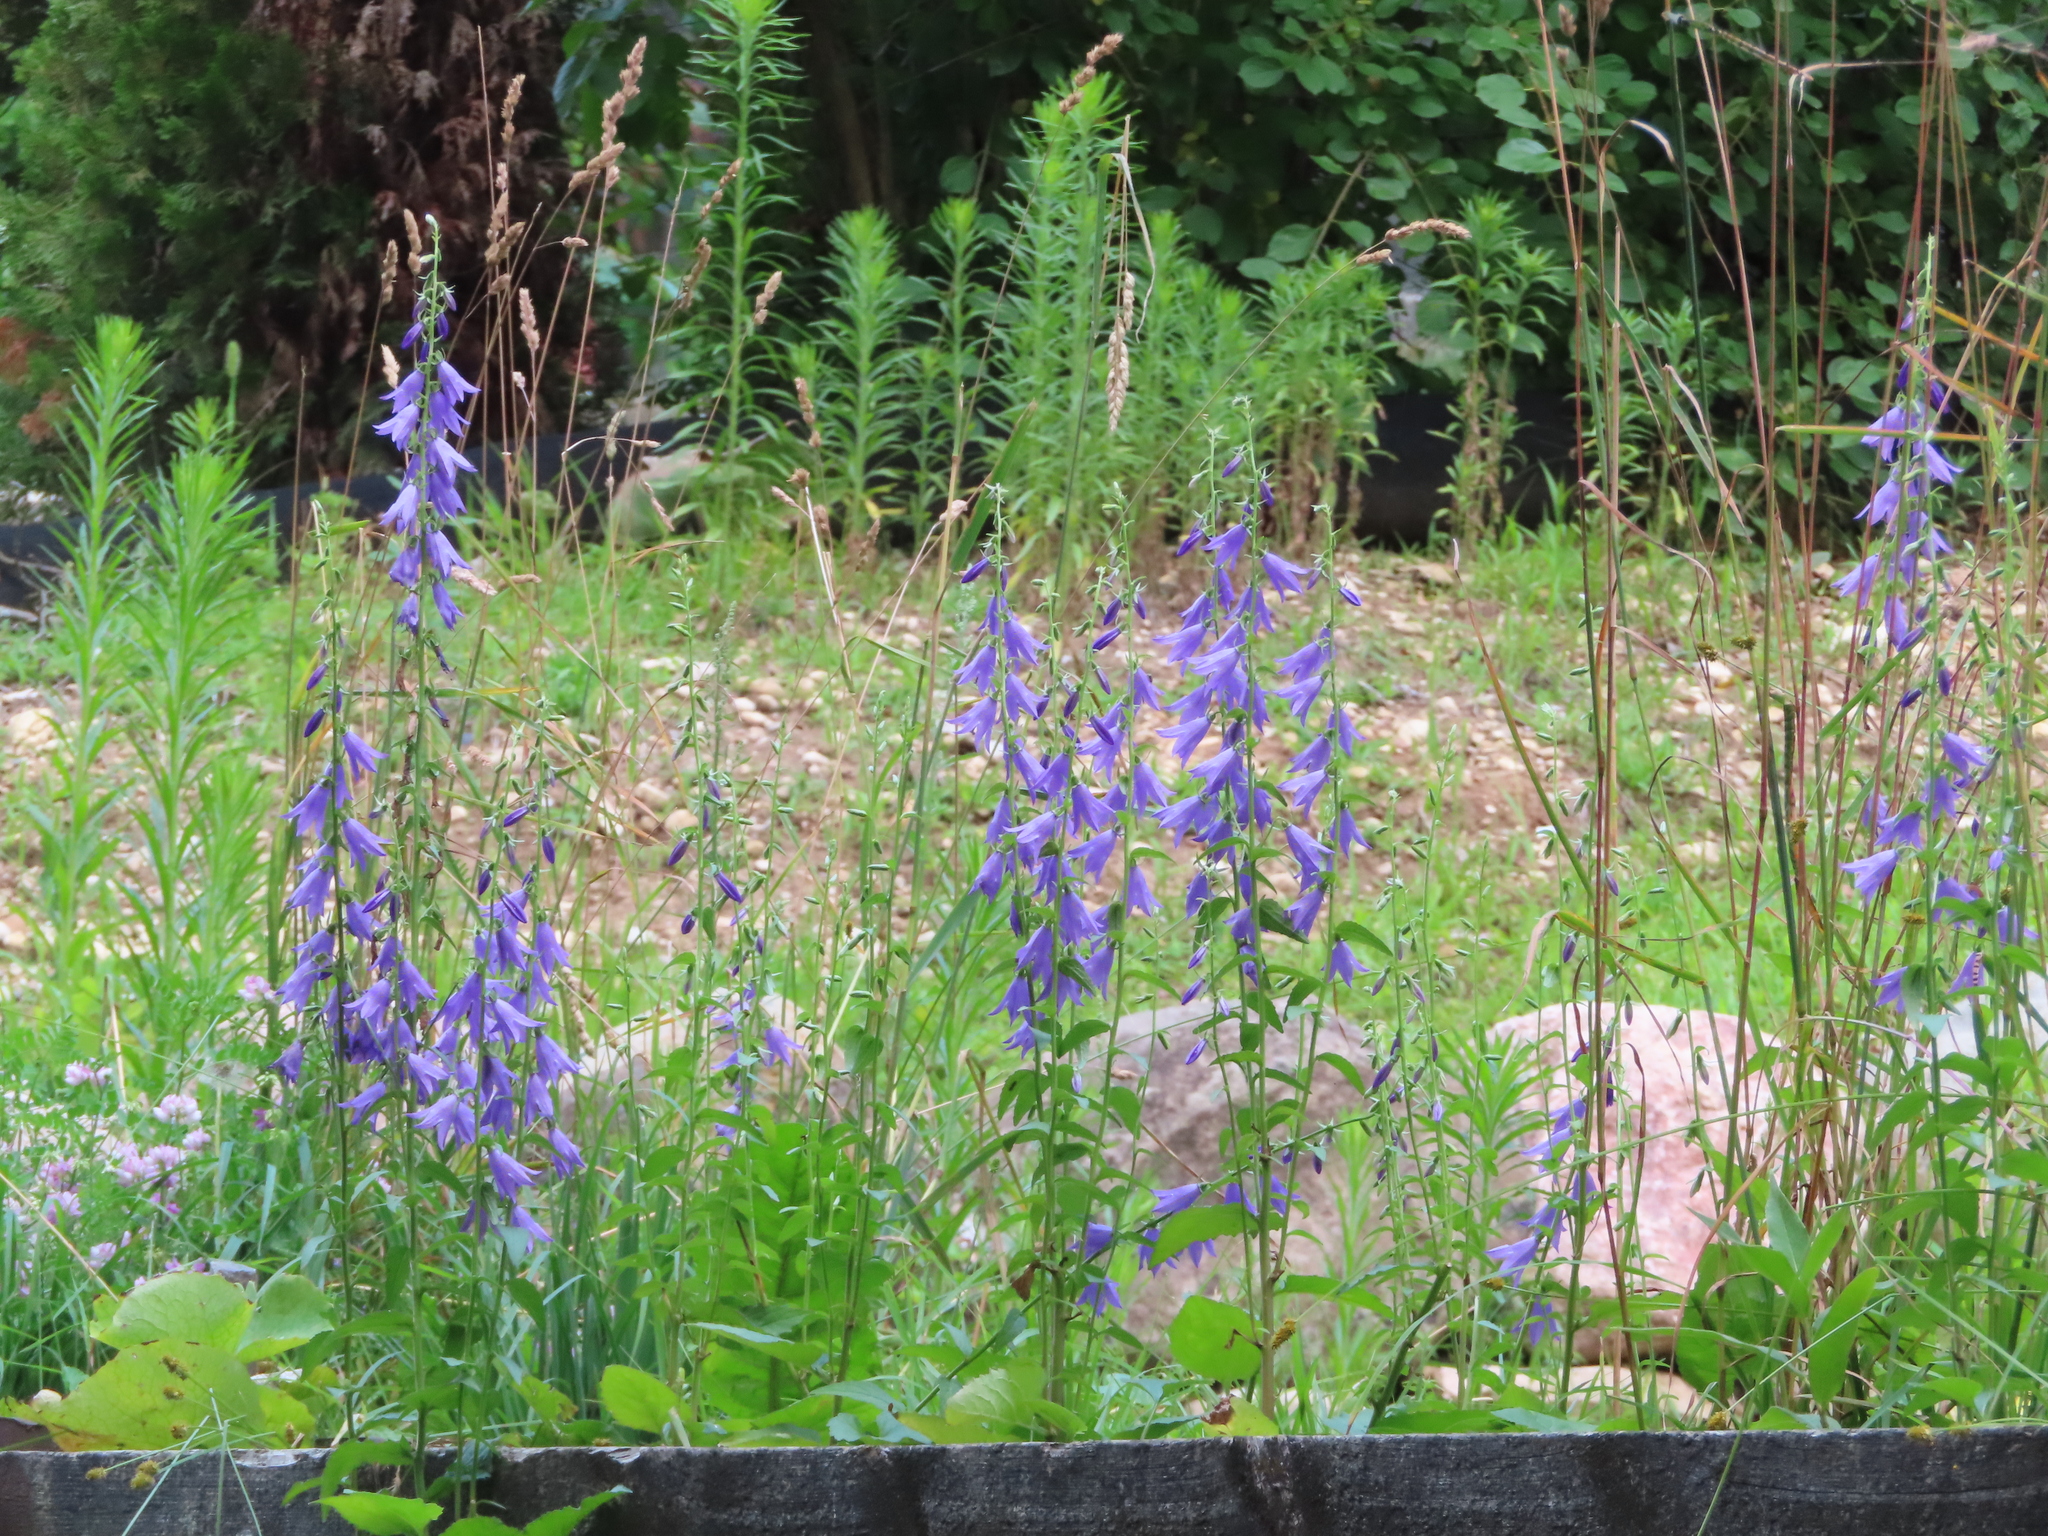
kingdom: Plantae
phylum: Tracheophyta
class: Magnoliopsida
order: Asterales
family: Campanulaceae
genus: Campanula
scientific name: Campanula rapunculoides
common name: Creeping bellflower
